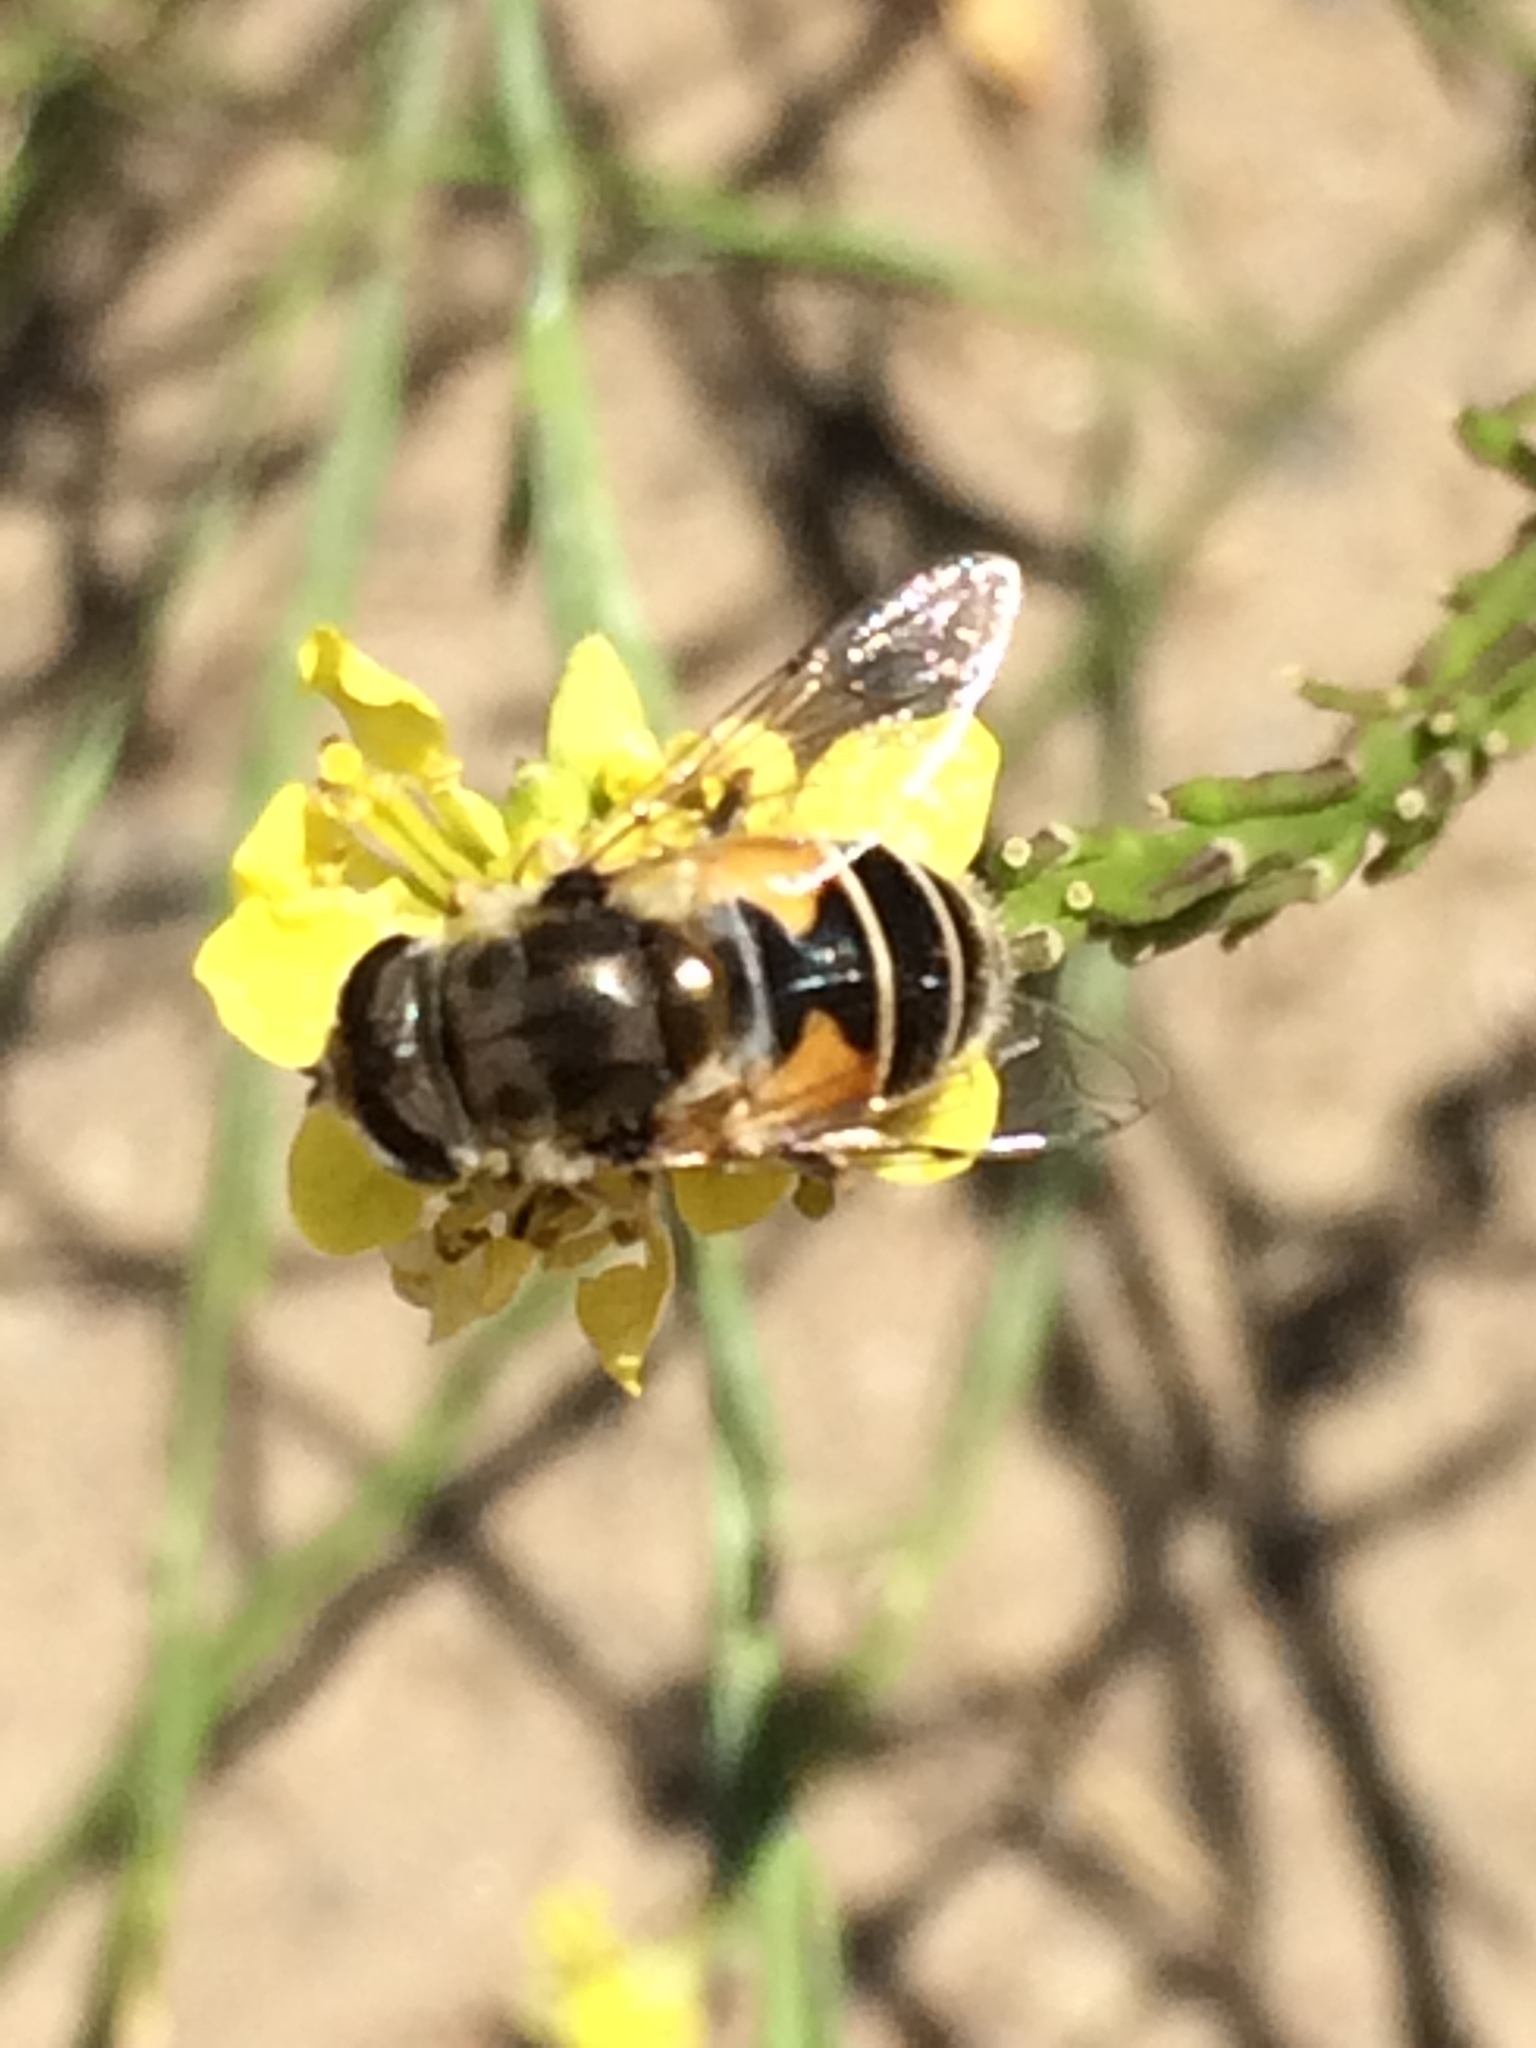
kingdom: Animalia
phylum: Arthropoda
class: Insecta
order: Diptera
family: Syrphidae
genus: Eristalis
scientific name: Eristalis arbustorum
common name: Hover fly
